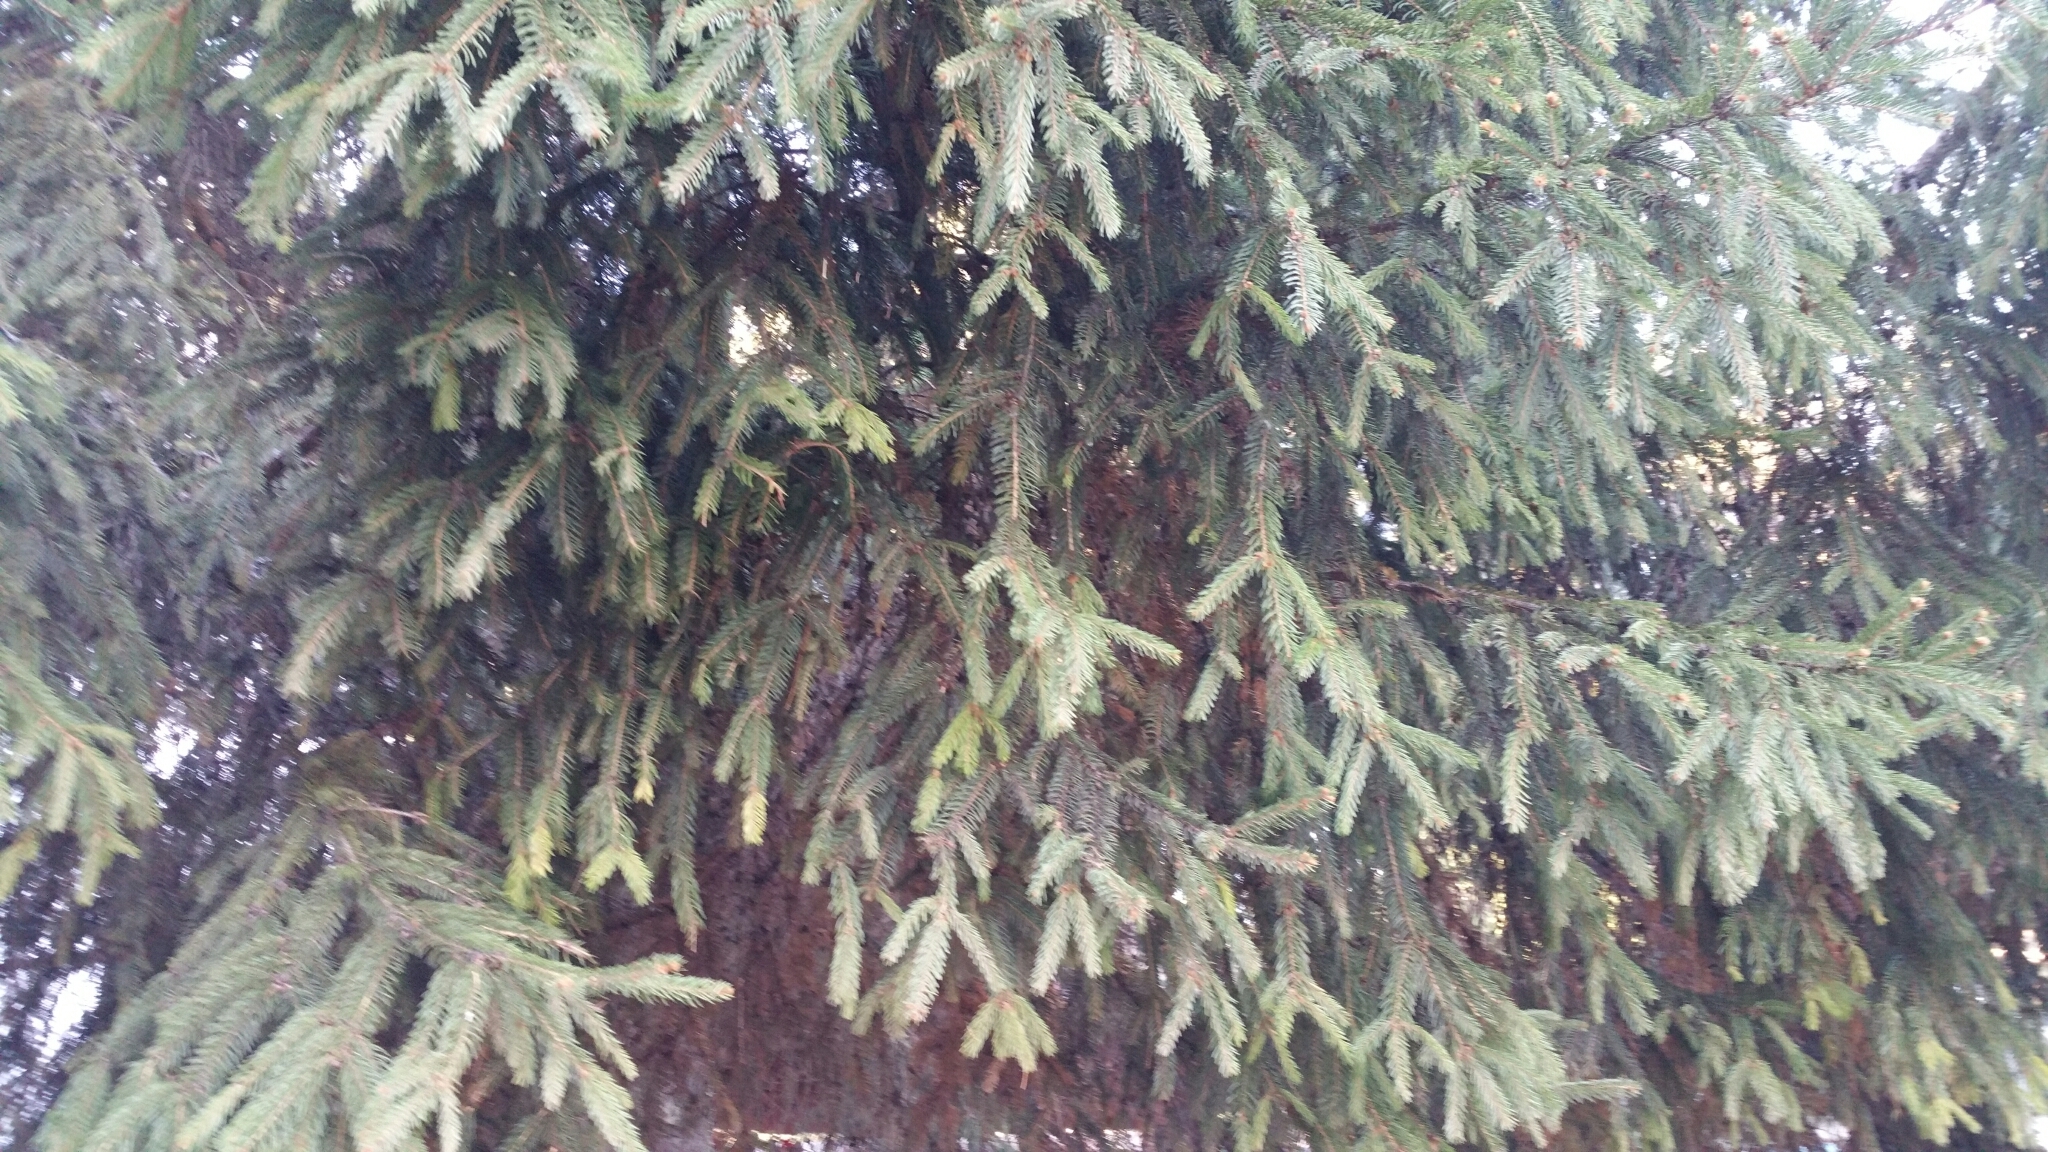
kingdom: Plantae
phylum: Tracheophyta
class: Pinopsida
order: Pinales
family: Pinaceae
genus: Picea
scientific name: Picea abies
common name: Norway spruce
